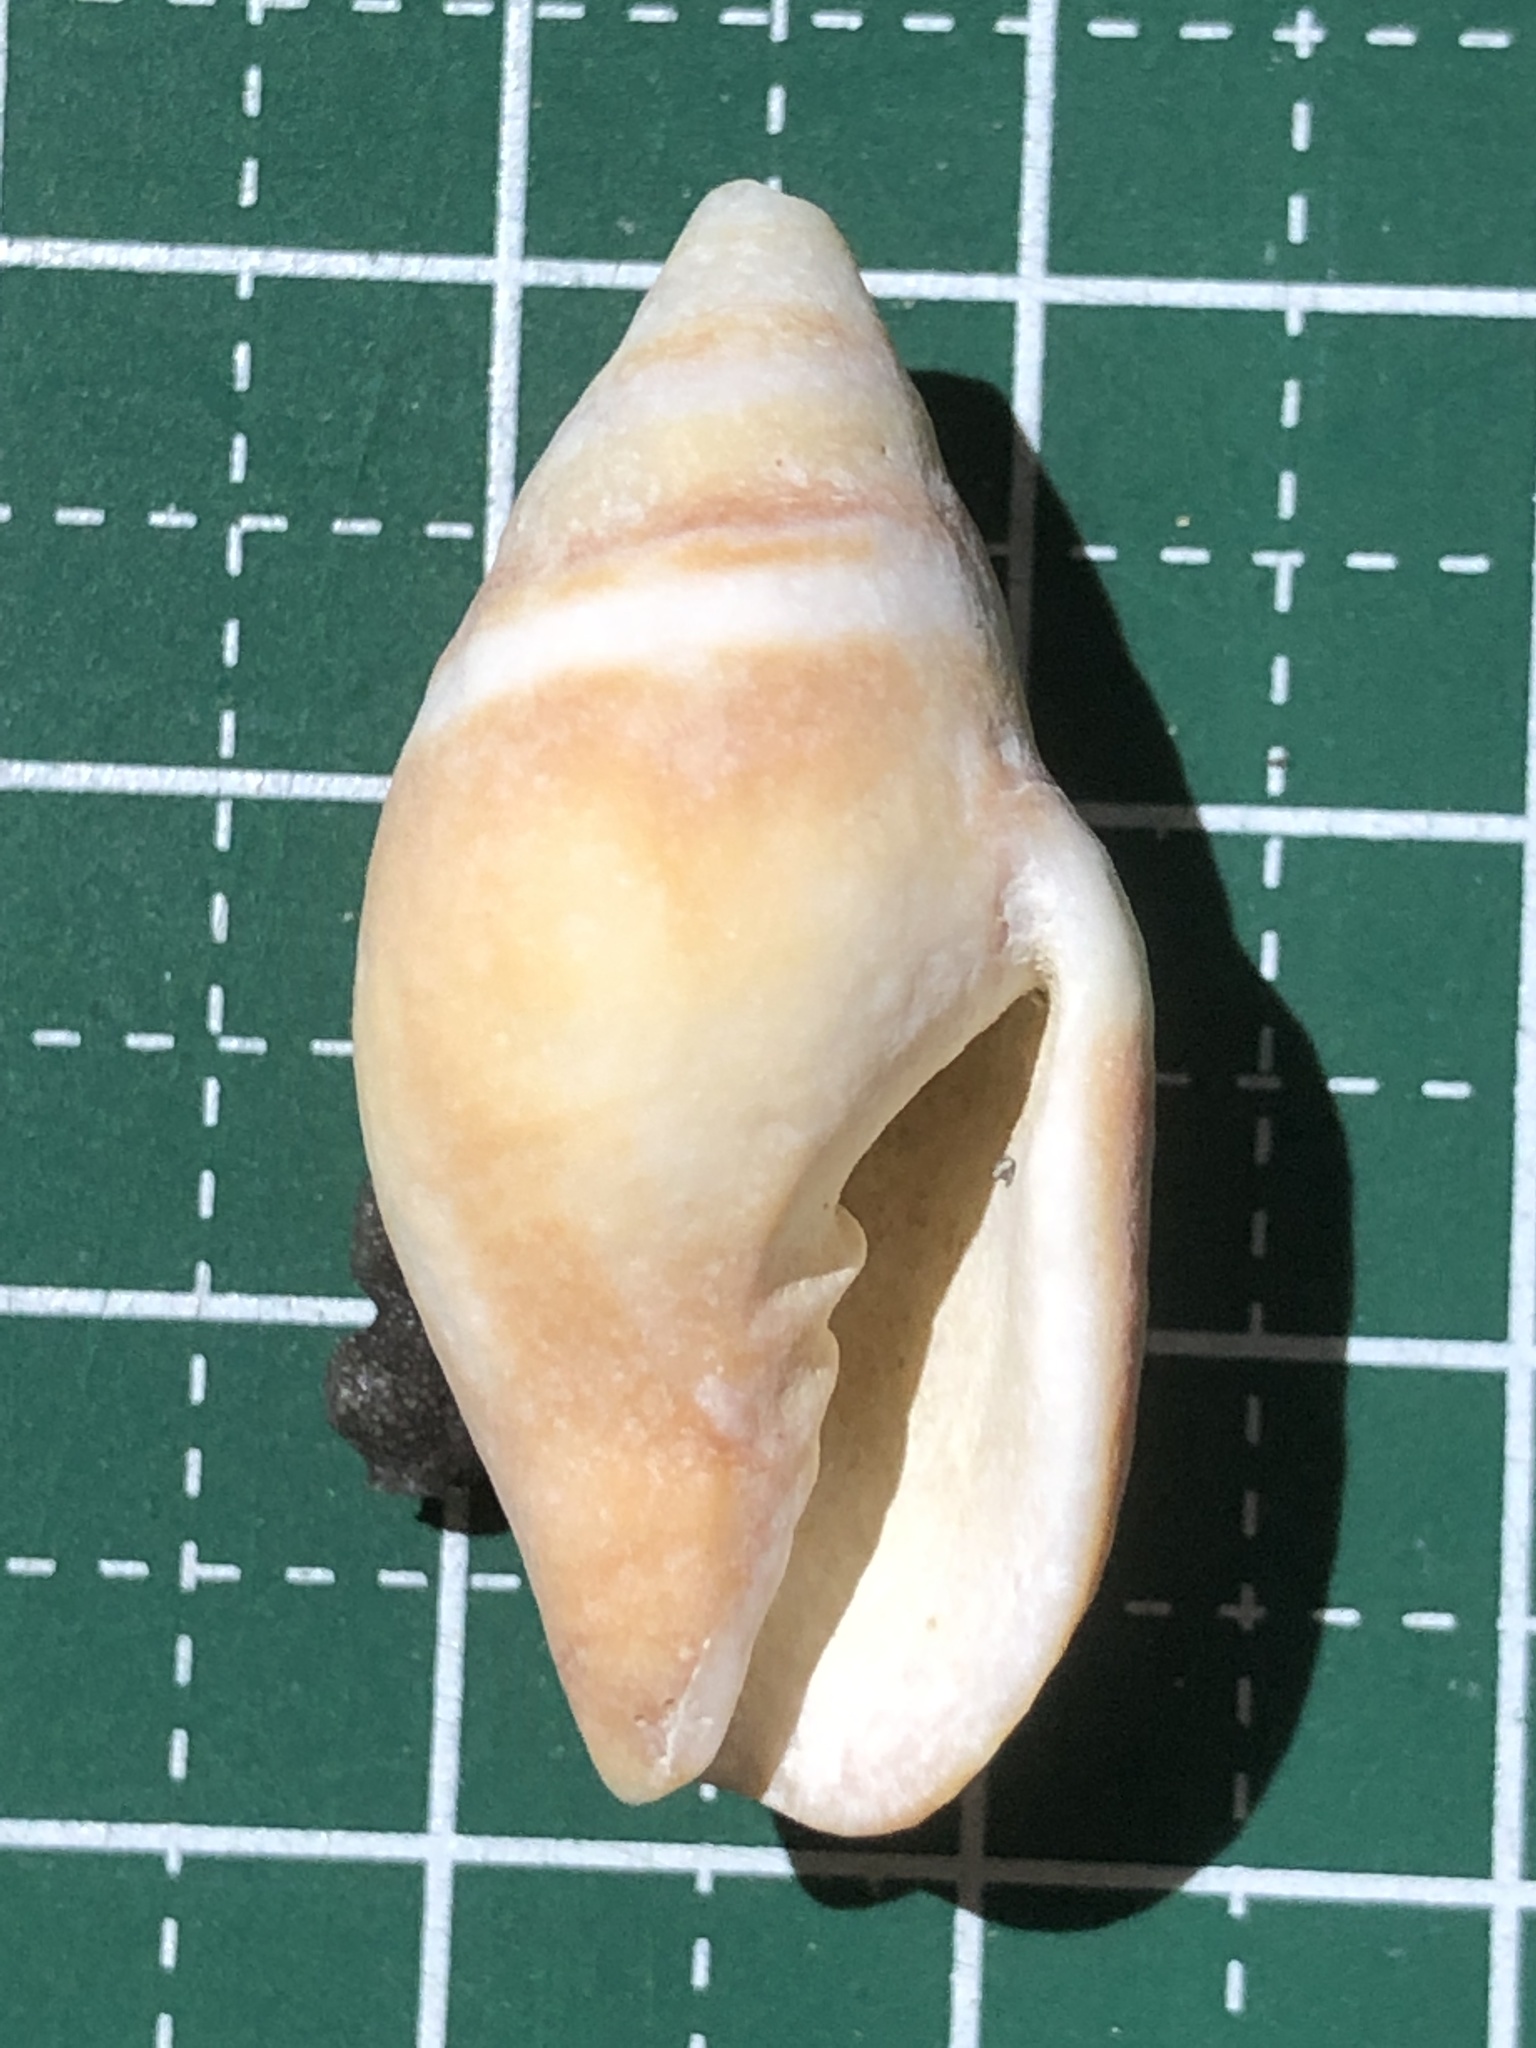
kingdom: Animalia
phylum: Mollusca
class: Gastropoda
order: Neogastropoda
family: Mitridae
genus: Strigatella
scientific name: Strigatella scutulata
